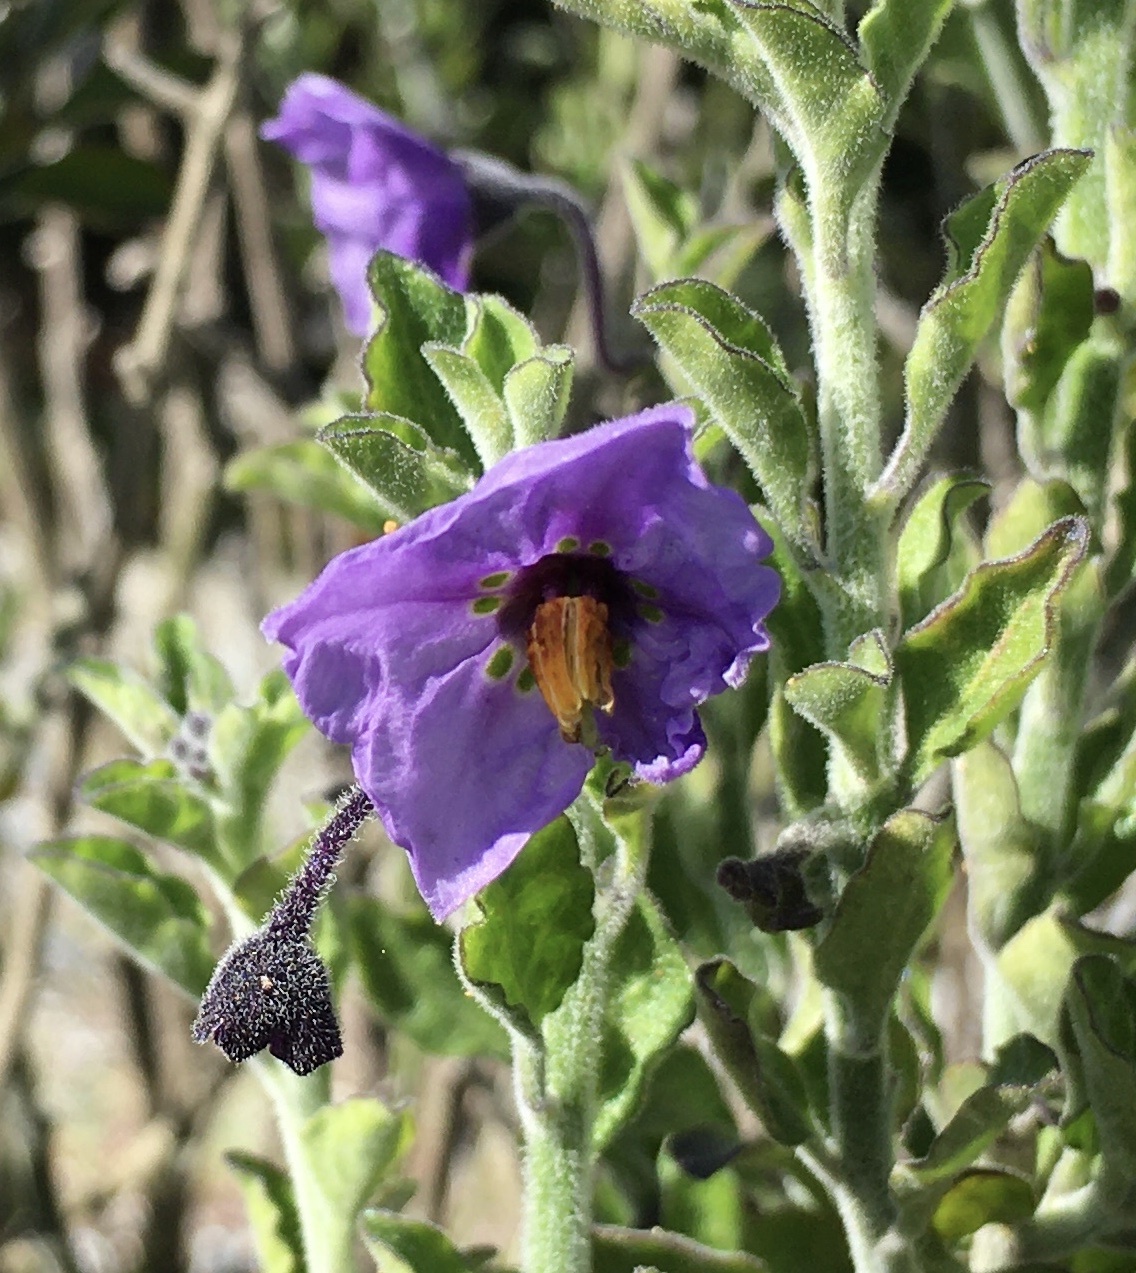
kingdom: Plantae
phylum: Tracheophyta
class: Magnoliopsida
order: Solanales
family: Solanaceae
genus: Solanum
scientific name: Solanum umbelliferum
